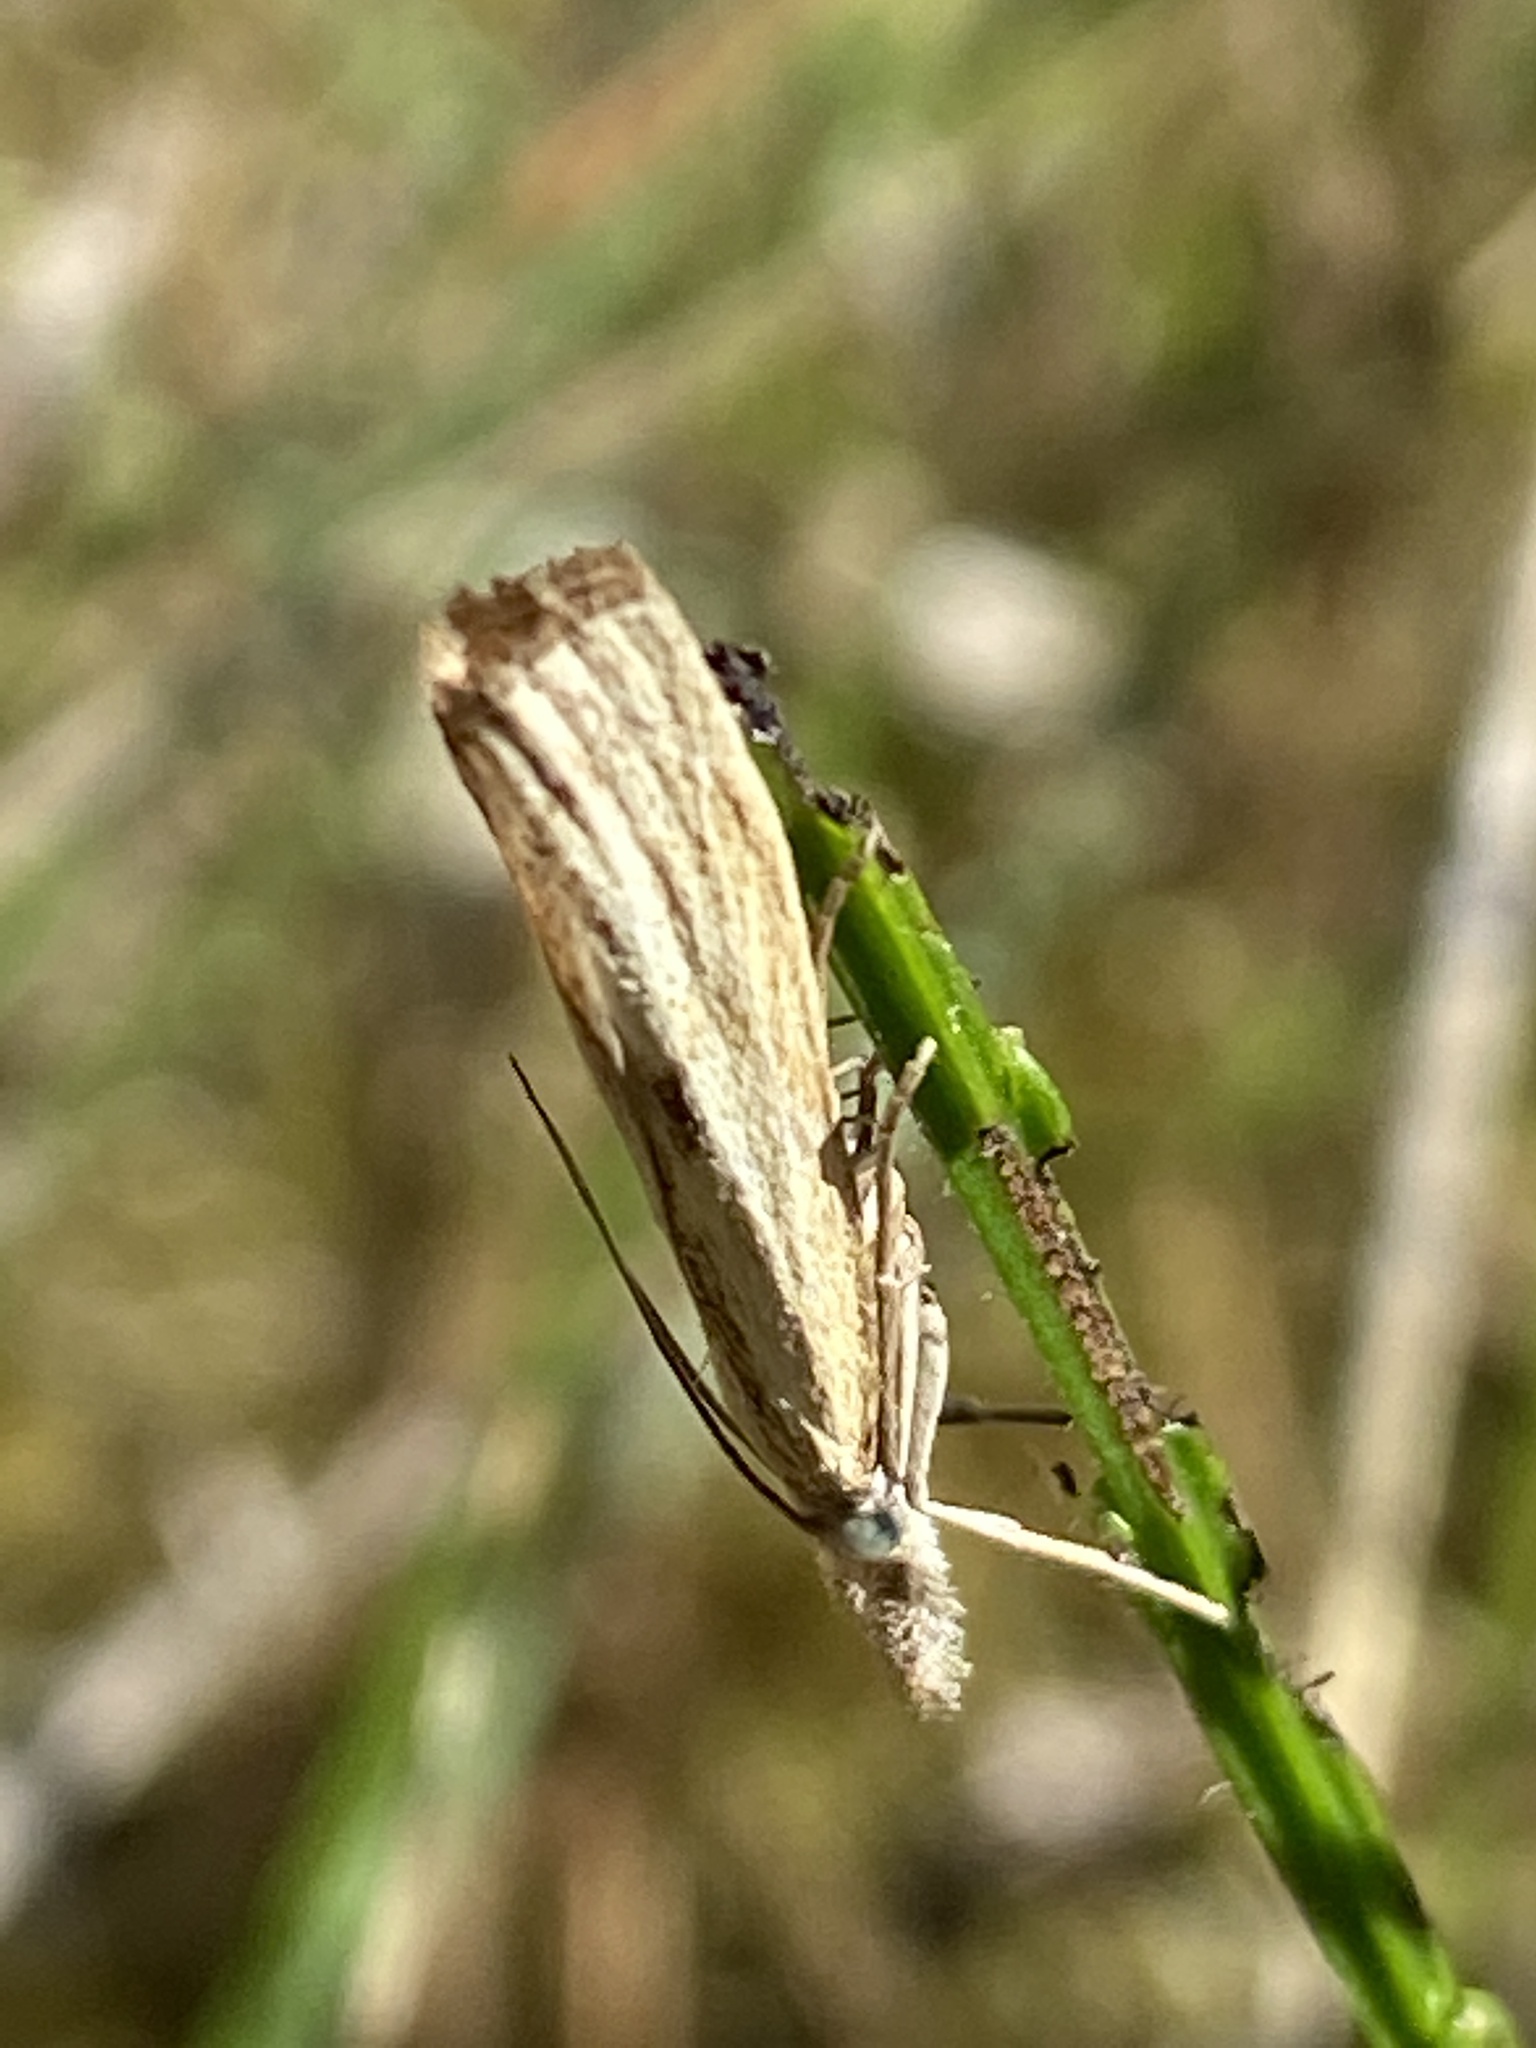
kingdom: Animalia
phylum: Arthropoda
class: Insecta
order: Lepidoptera
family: Crambidae
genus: Agriphila
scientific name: Agriphila inquinatella
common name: Barred grass-veneer
